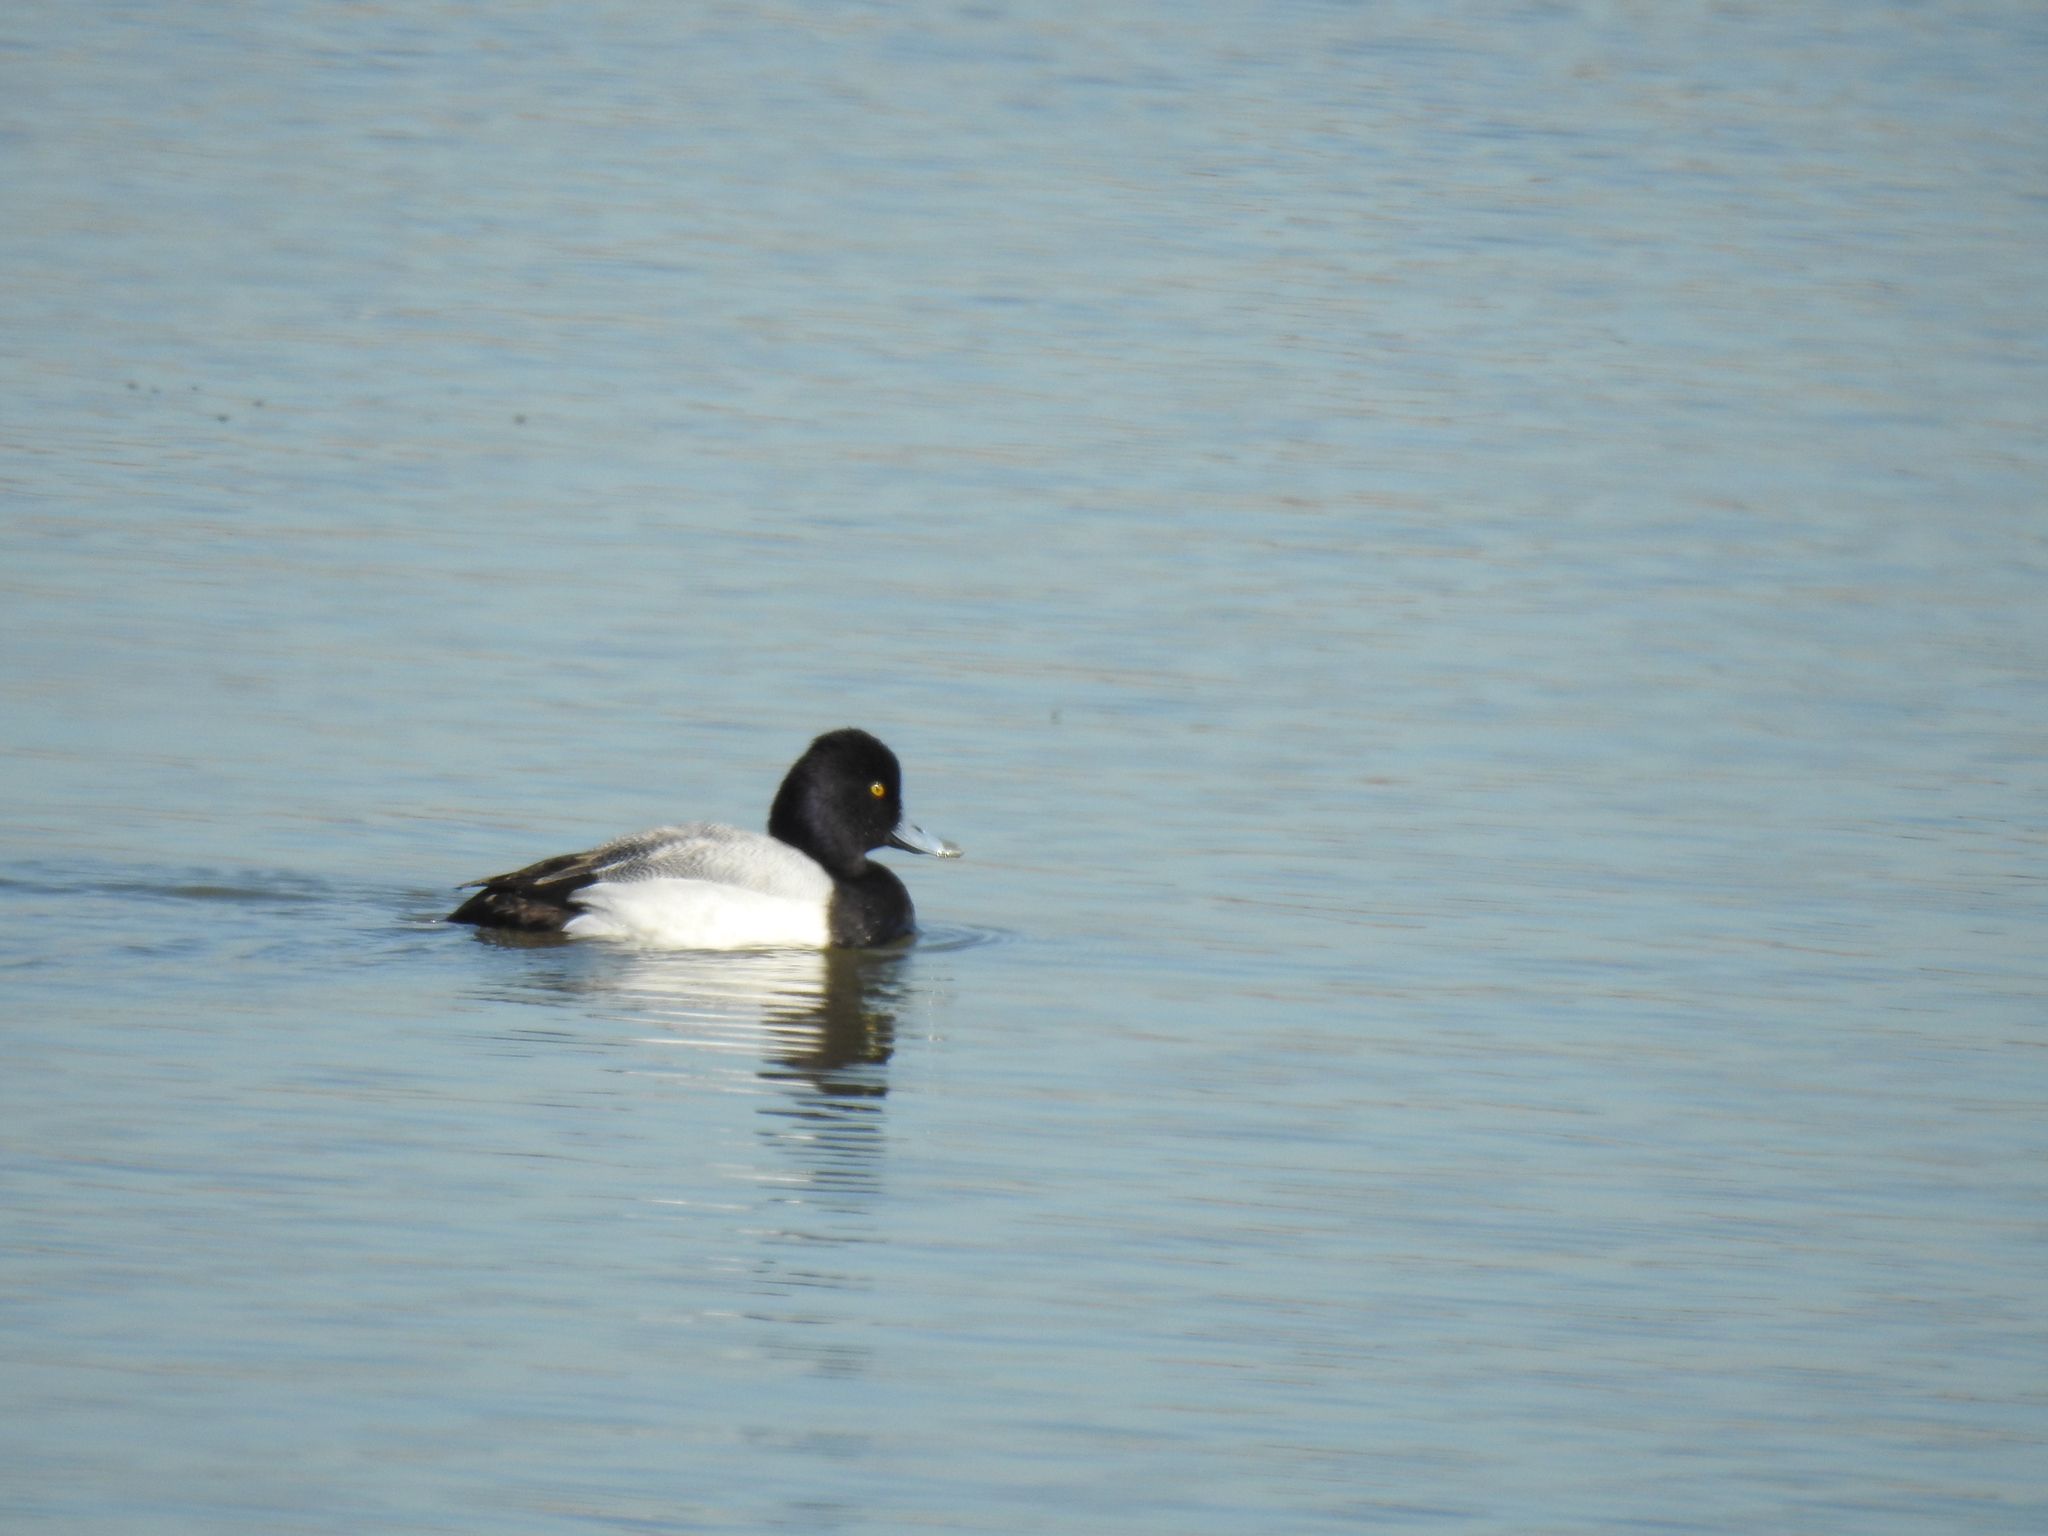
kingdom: Animalia
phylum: Chordata
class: Aves
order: Anseriformes
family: Anatidae
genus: Aythya
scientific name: Aythya affinis
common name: Lesser scaup
